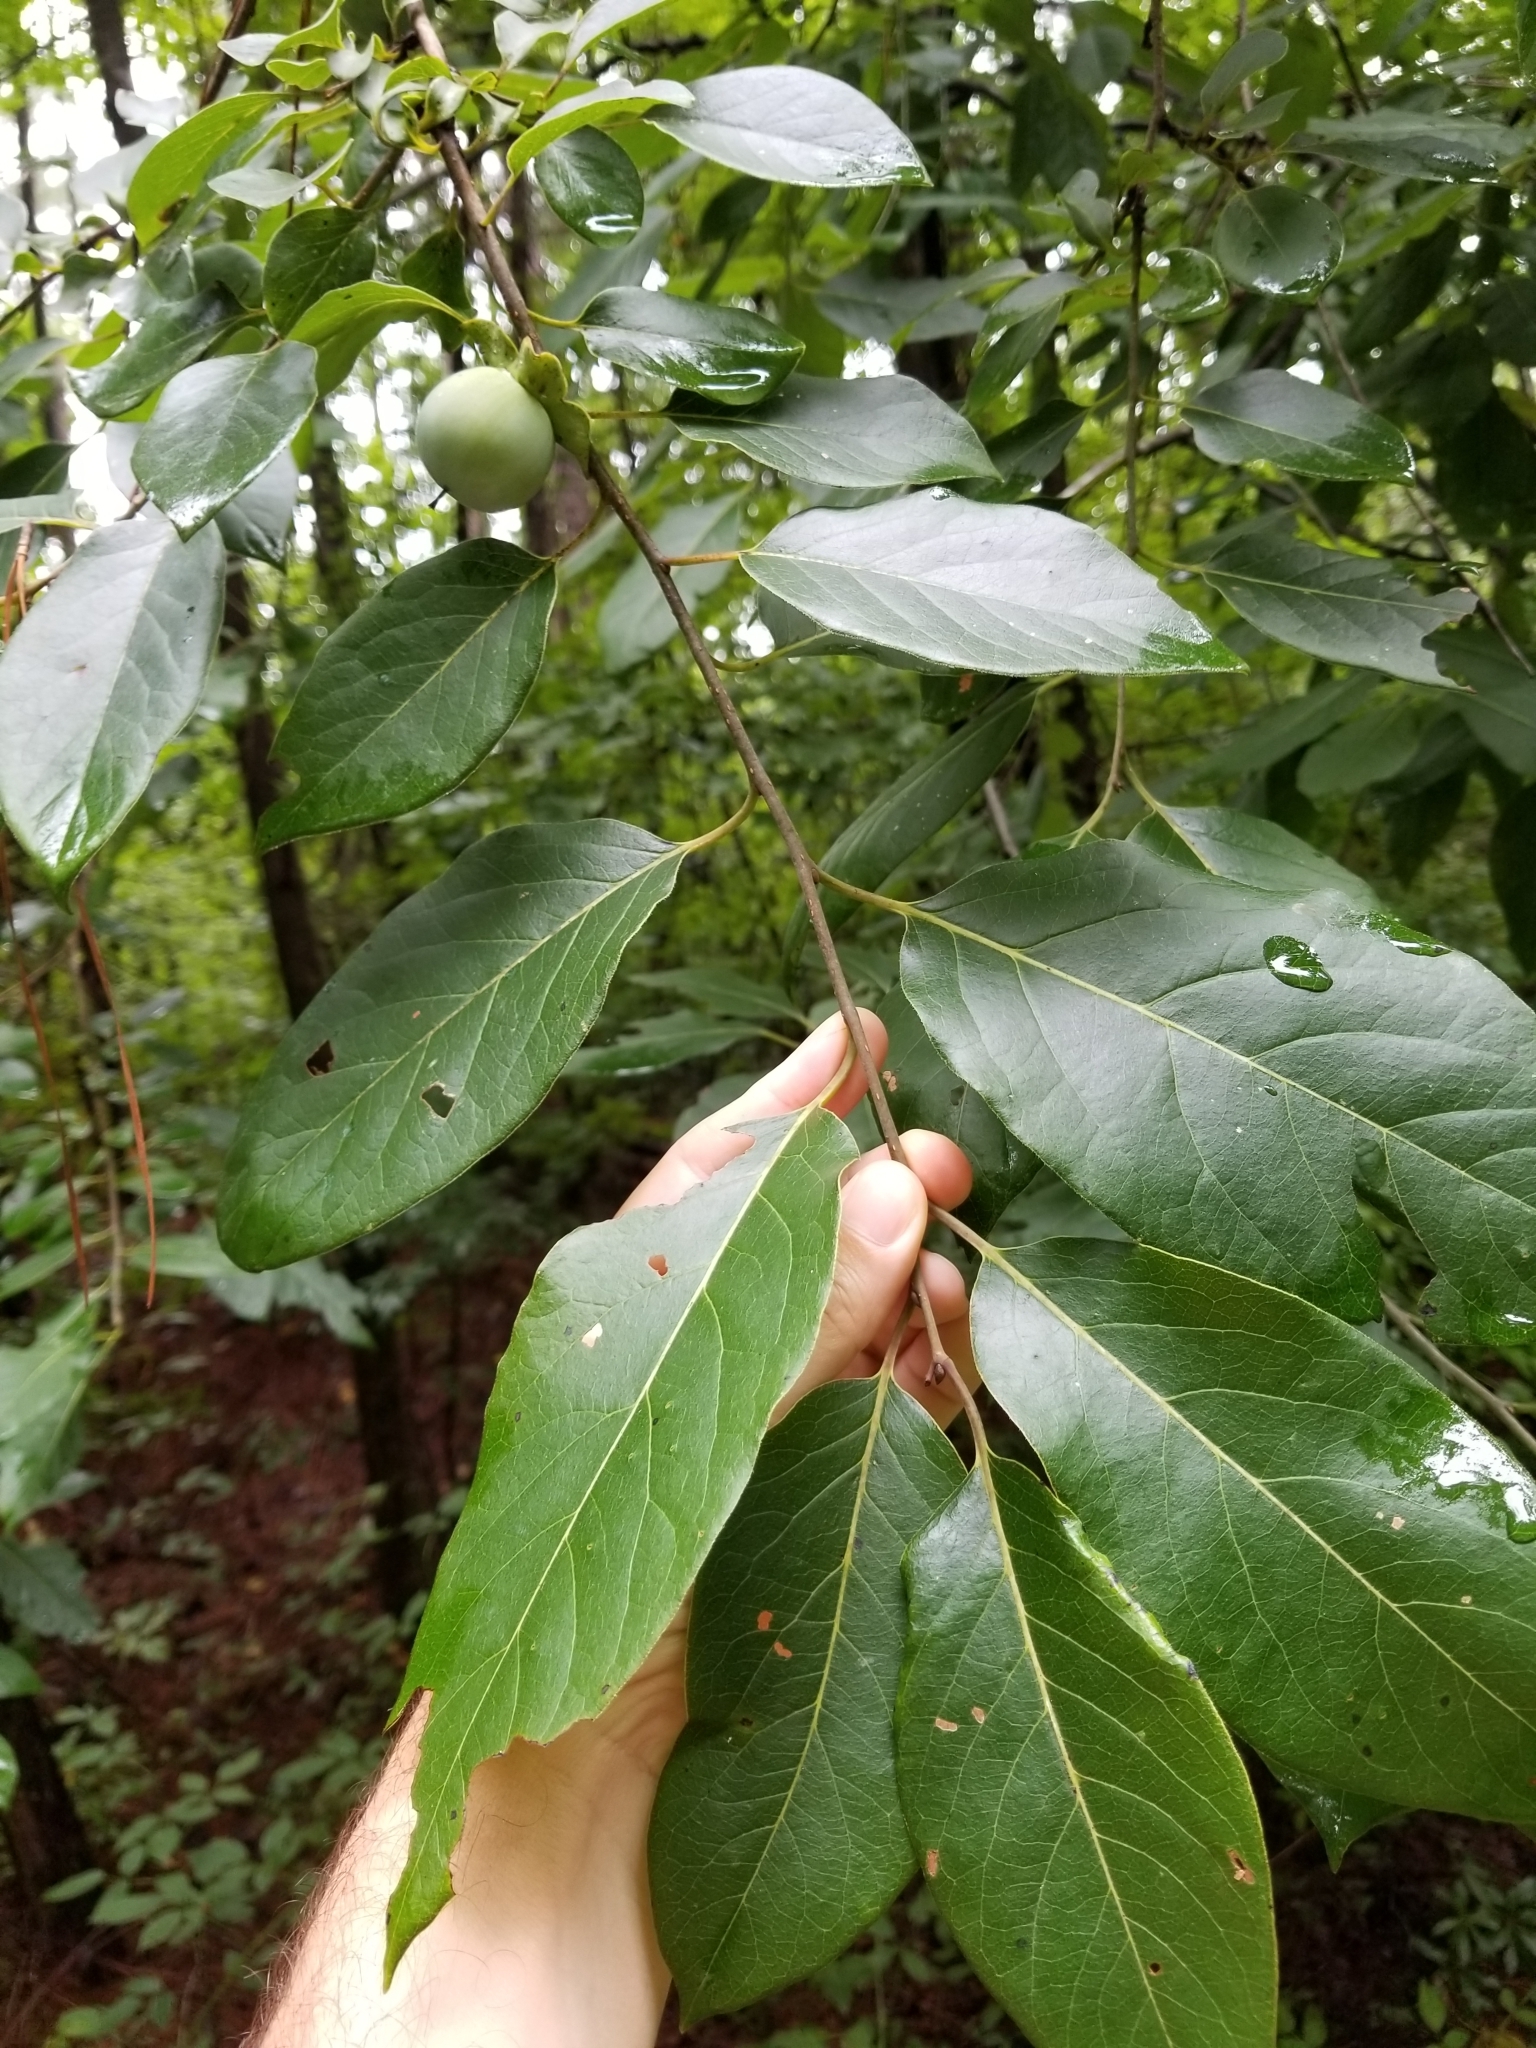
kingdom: Plantae
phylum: Tracheophyta
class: Magnoliopsida
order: Ericales
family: Ebenaceae
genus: Diospyros
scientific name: Diospyros virginiana
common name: Persimmon
